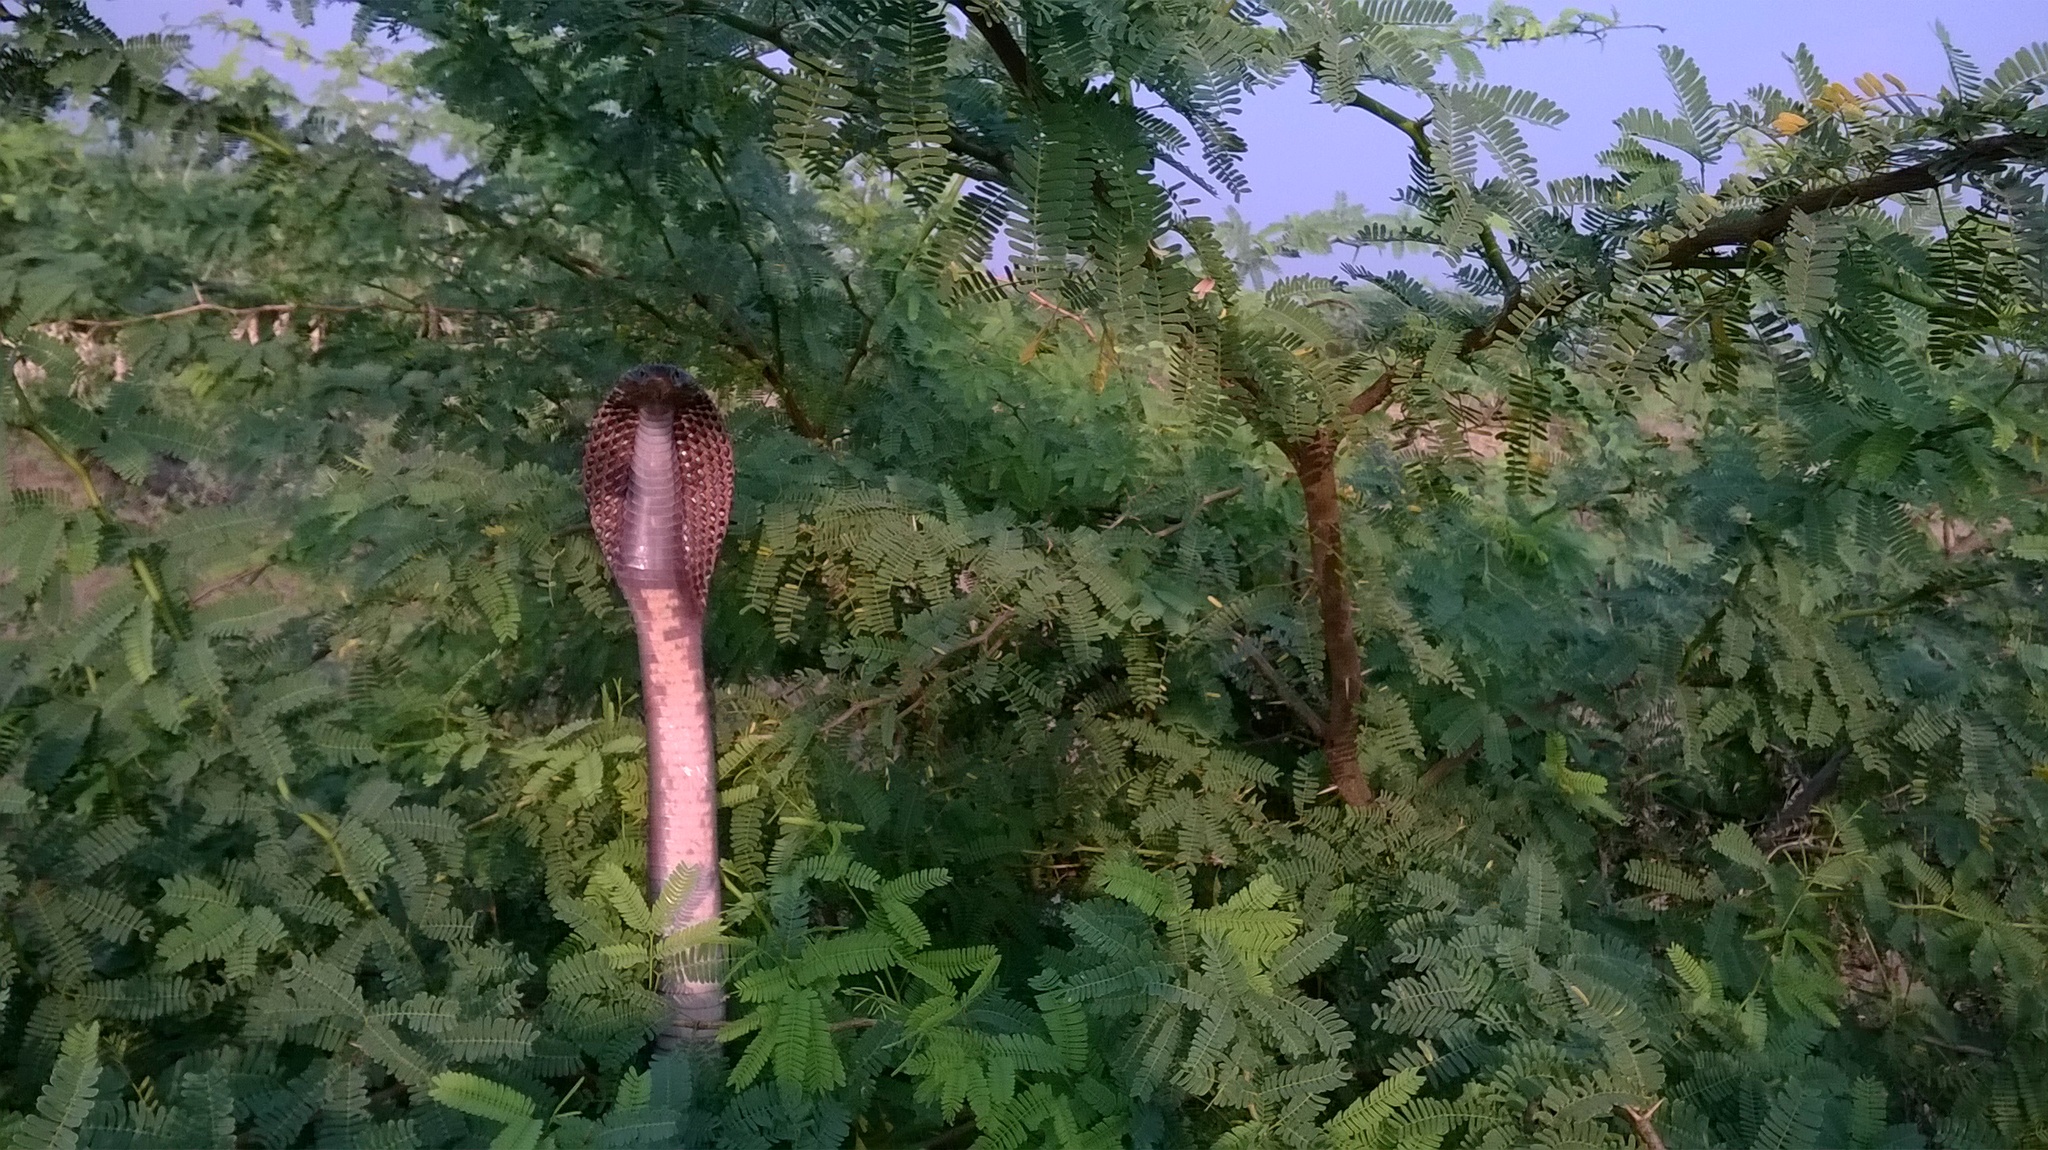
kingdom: Animalia
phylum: Chordata
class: Squamata
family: Elapidae
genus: Naja
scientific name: Naja naja
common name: Indian cobra
